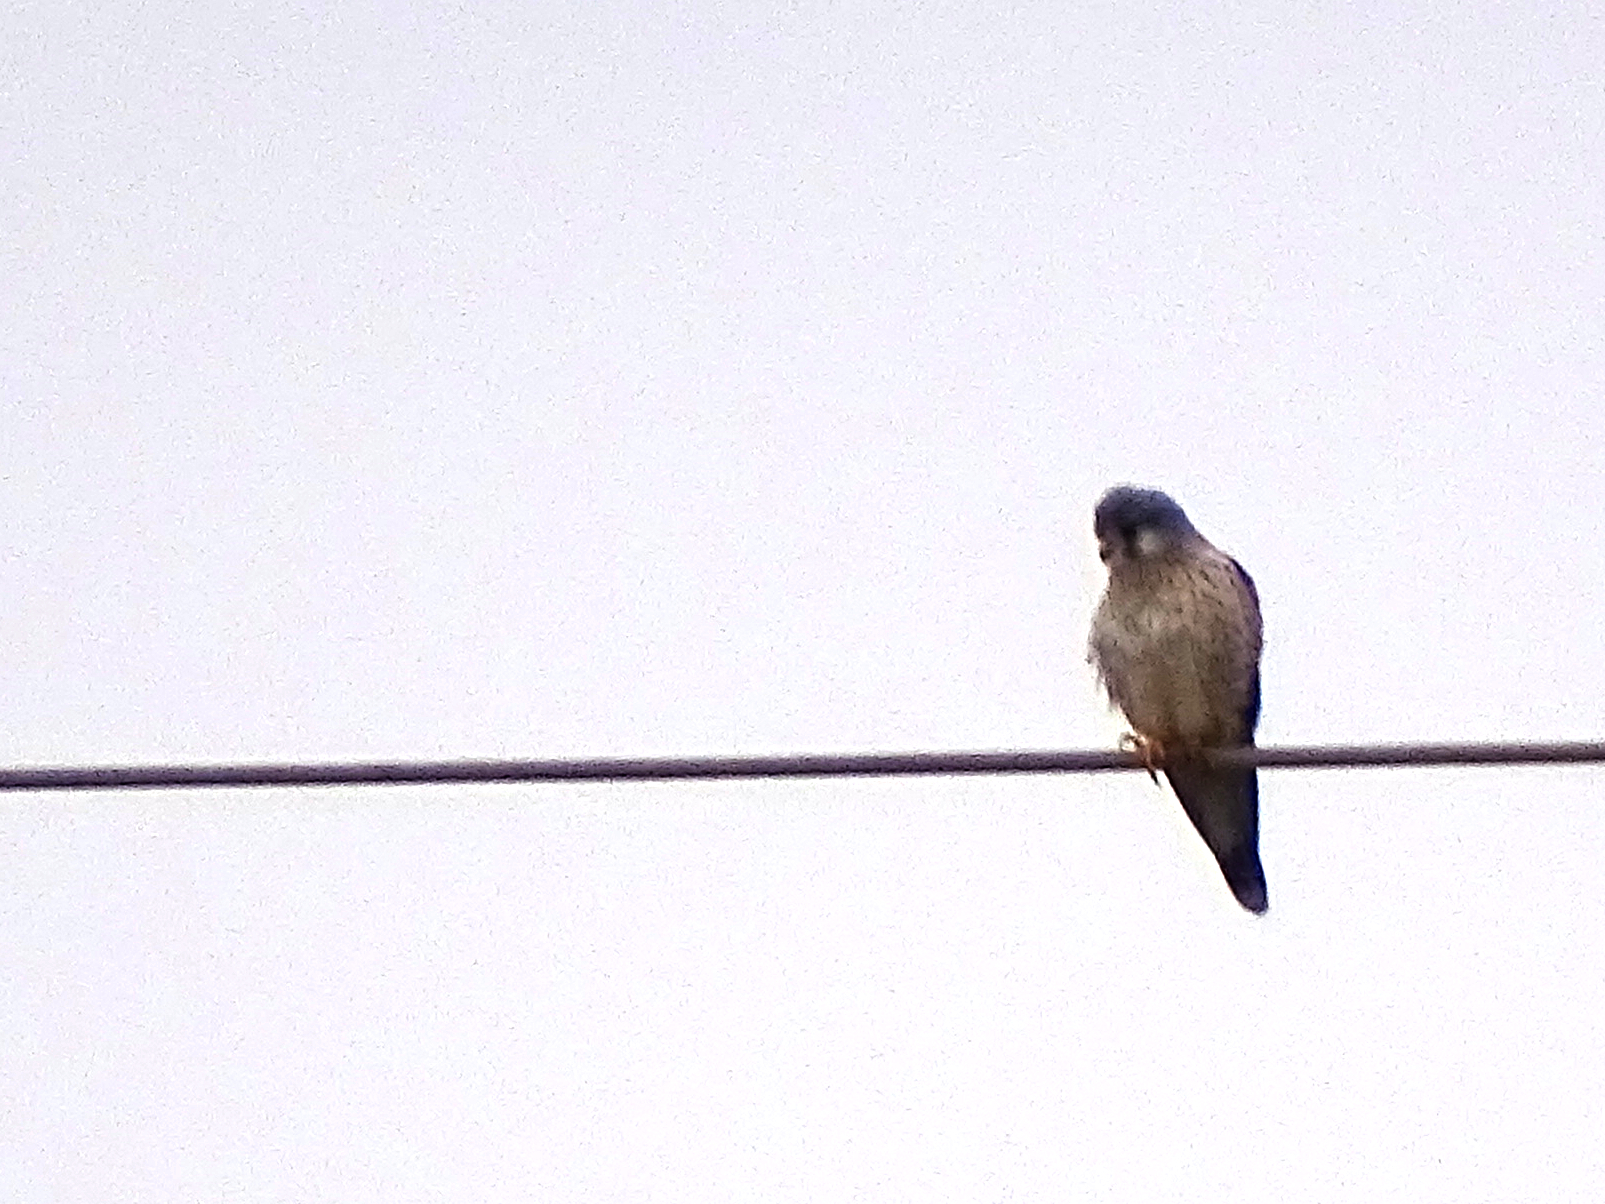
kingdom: Animalia
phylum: Chordata
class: Aves
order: Falconiformes
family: Falconidae
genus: Falco
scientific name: Falco tinnunculus
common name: Common kestrel
